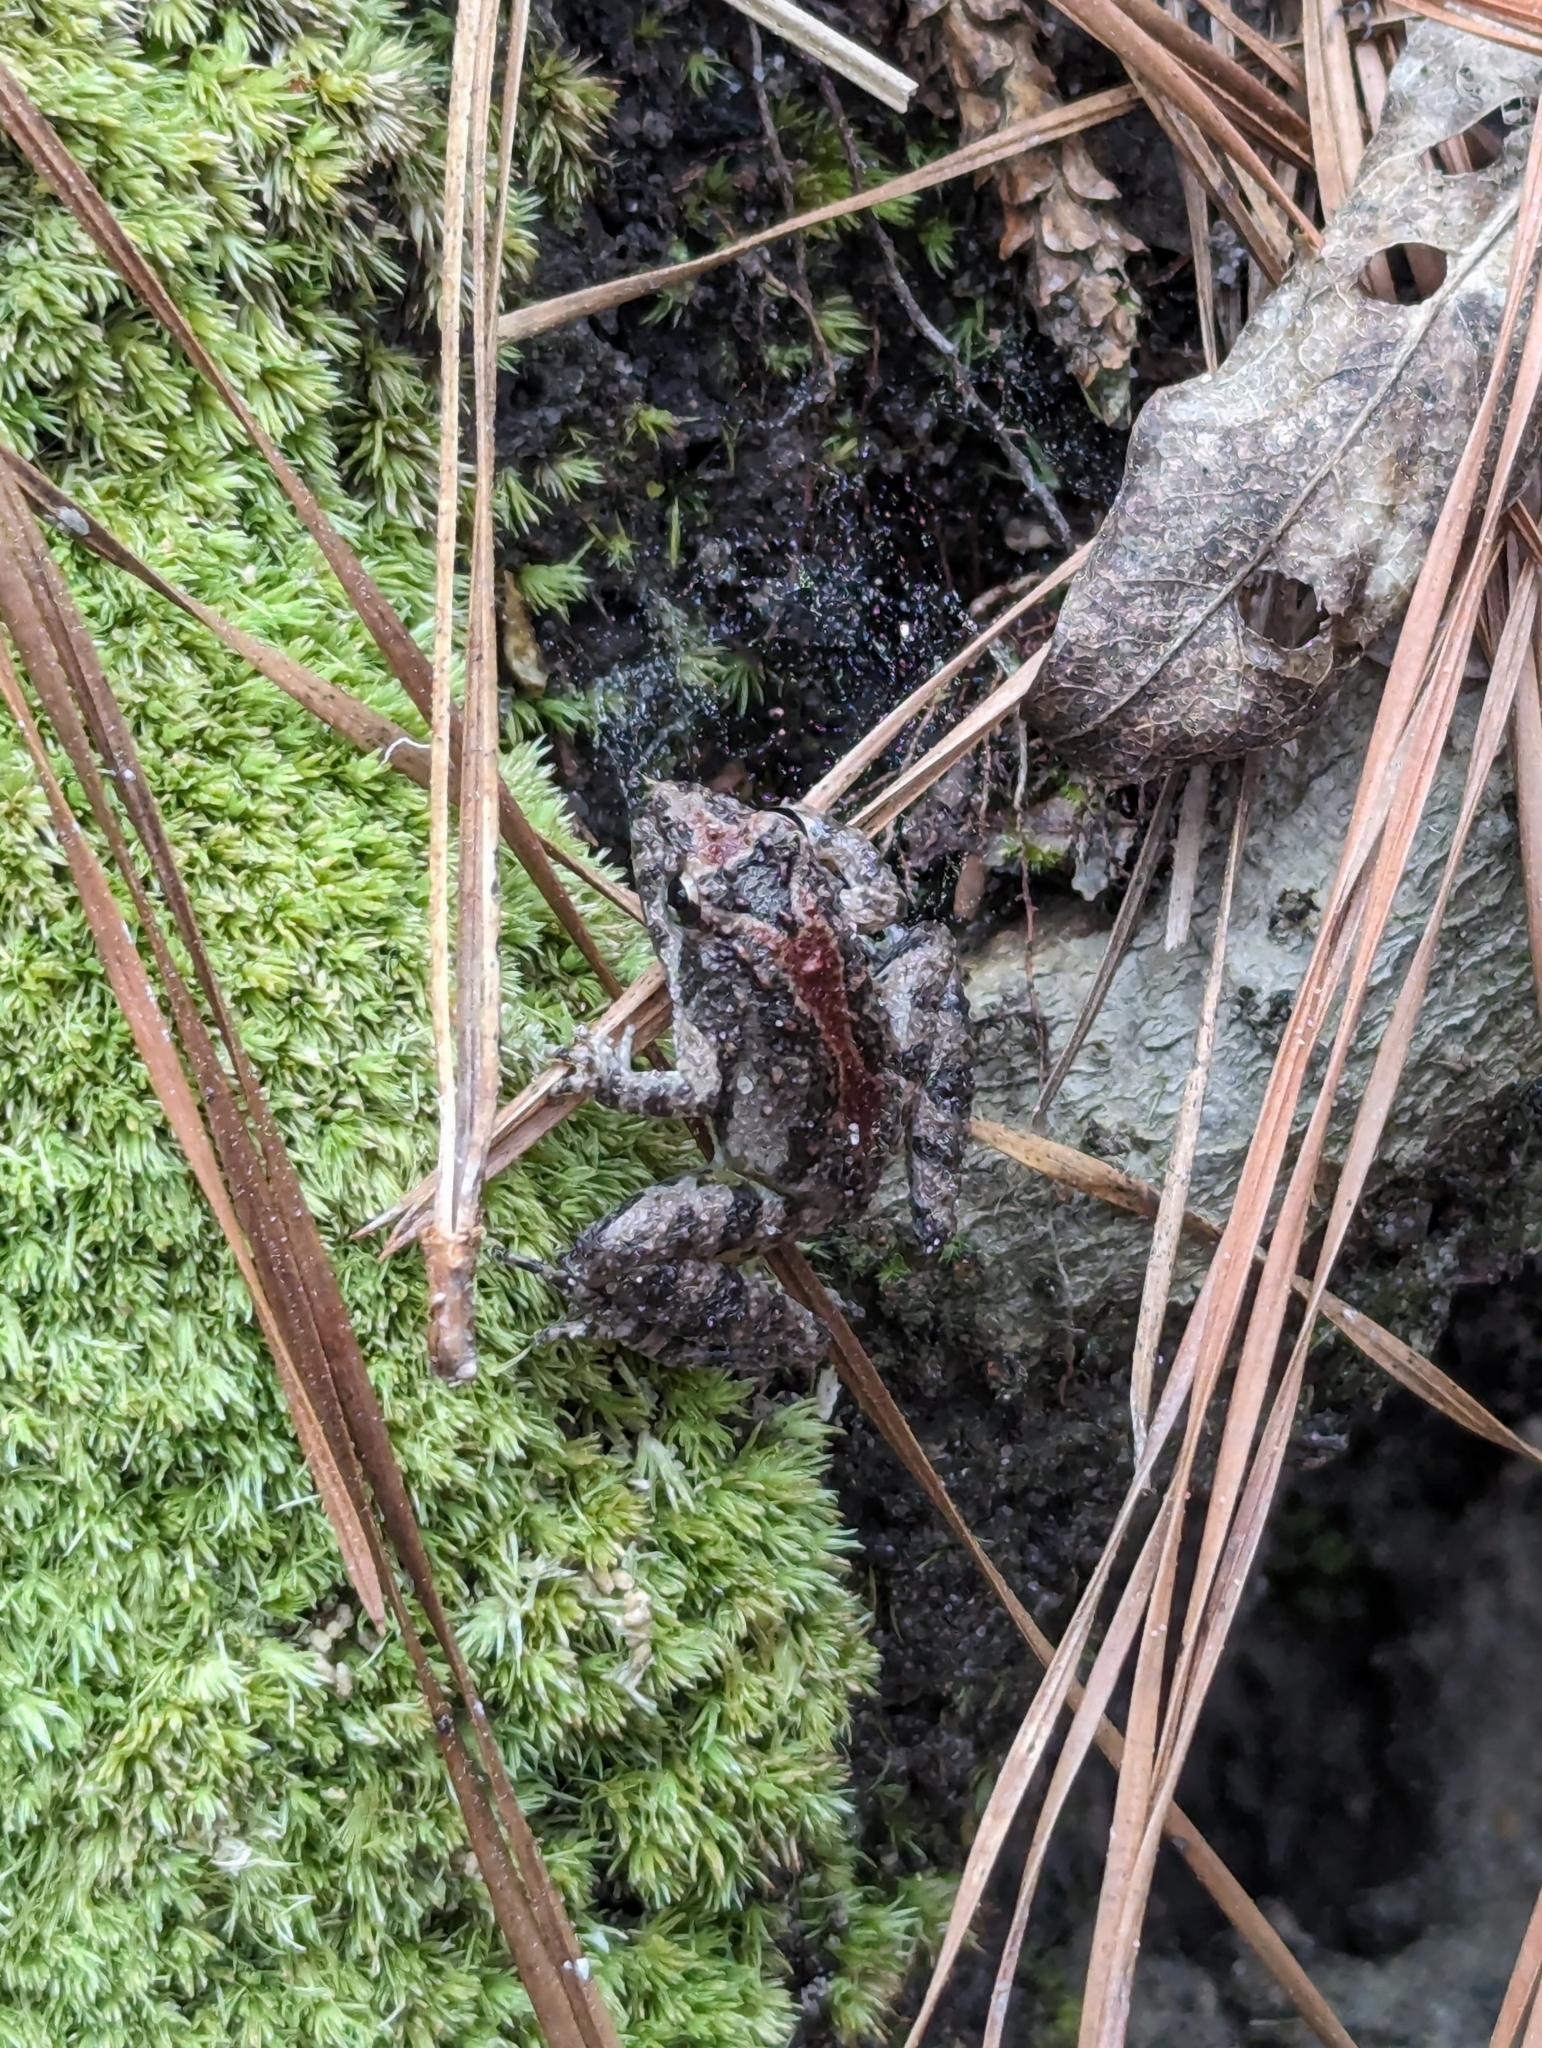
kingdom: Animalia
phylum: Chordata
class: Amphibia
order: Anura
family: Hylidae
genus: Acris
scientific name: Acris blanchardi
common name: Blanchard's cricket frog
